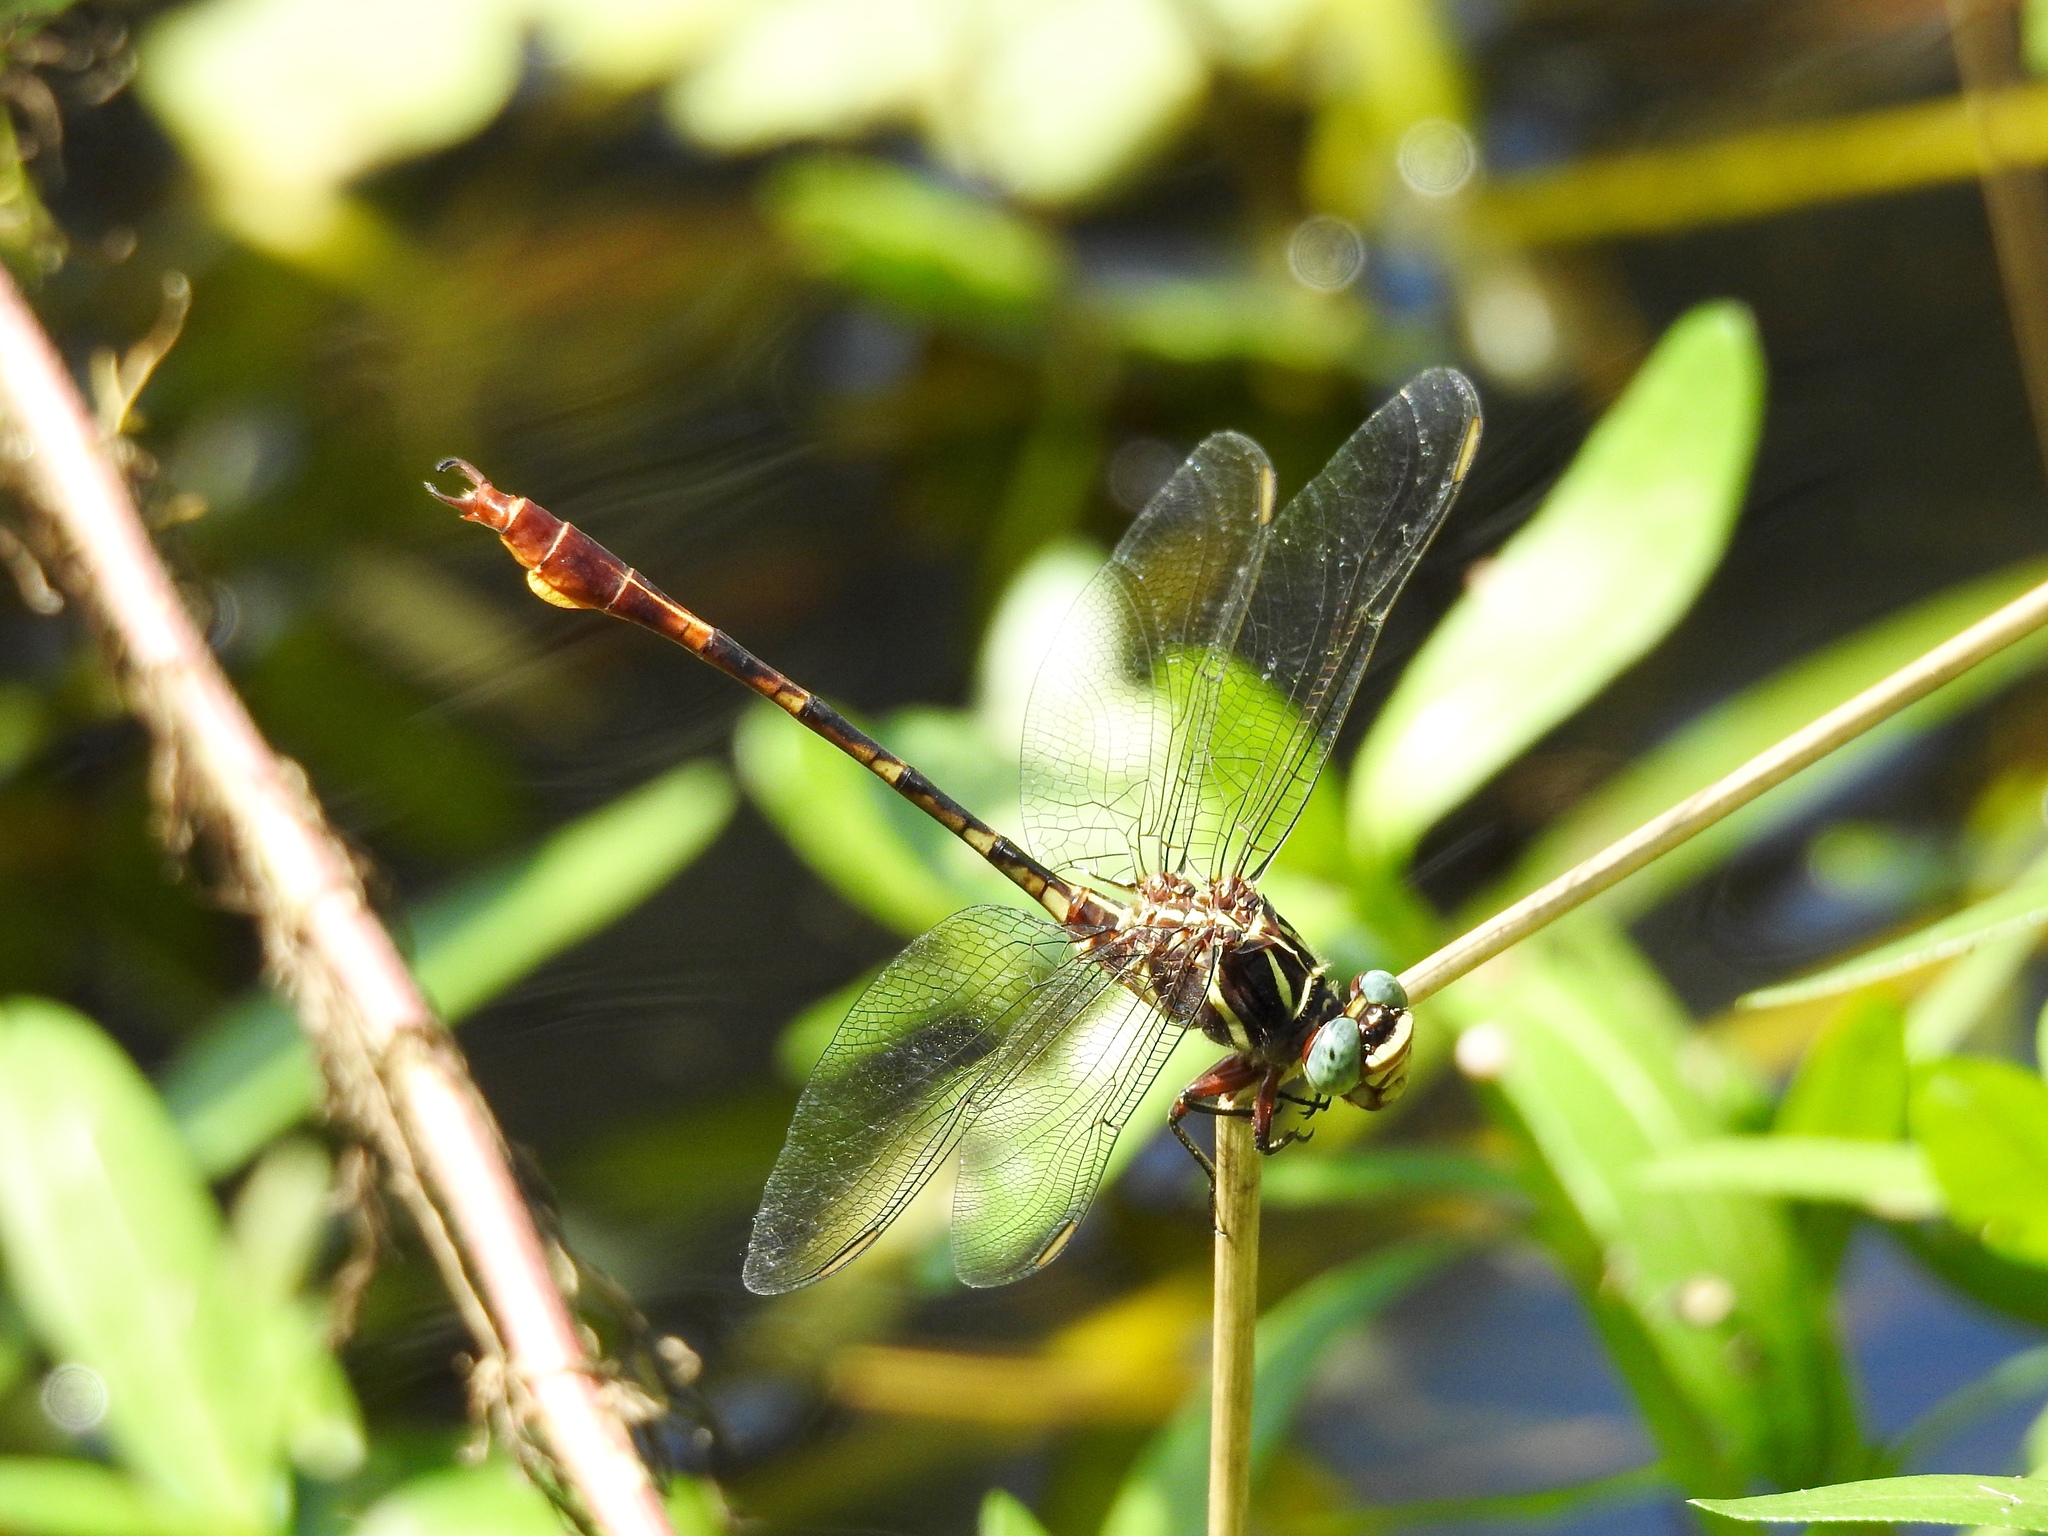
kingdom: Animalia
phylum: Arthropoda
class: Insecta
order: Odonata
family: Gomphidae
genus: Aphylla
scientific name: Aphylla williamsoni
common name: Two-striped forceptail
